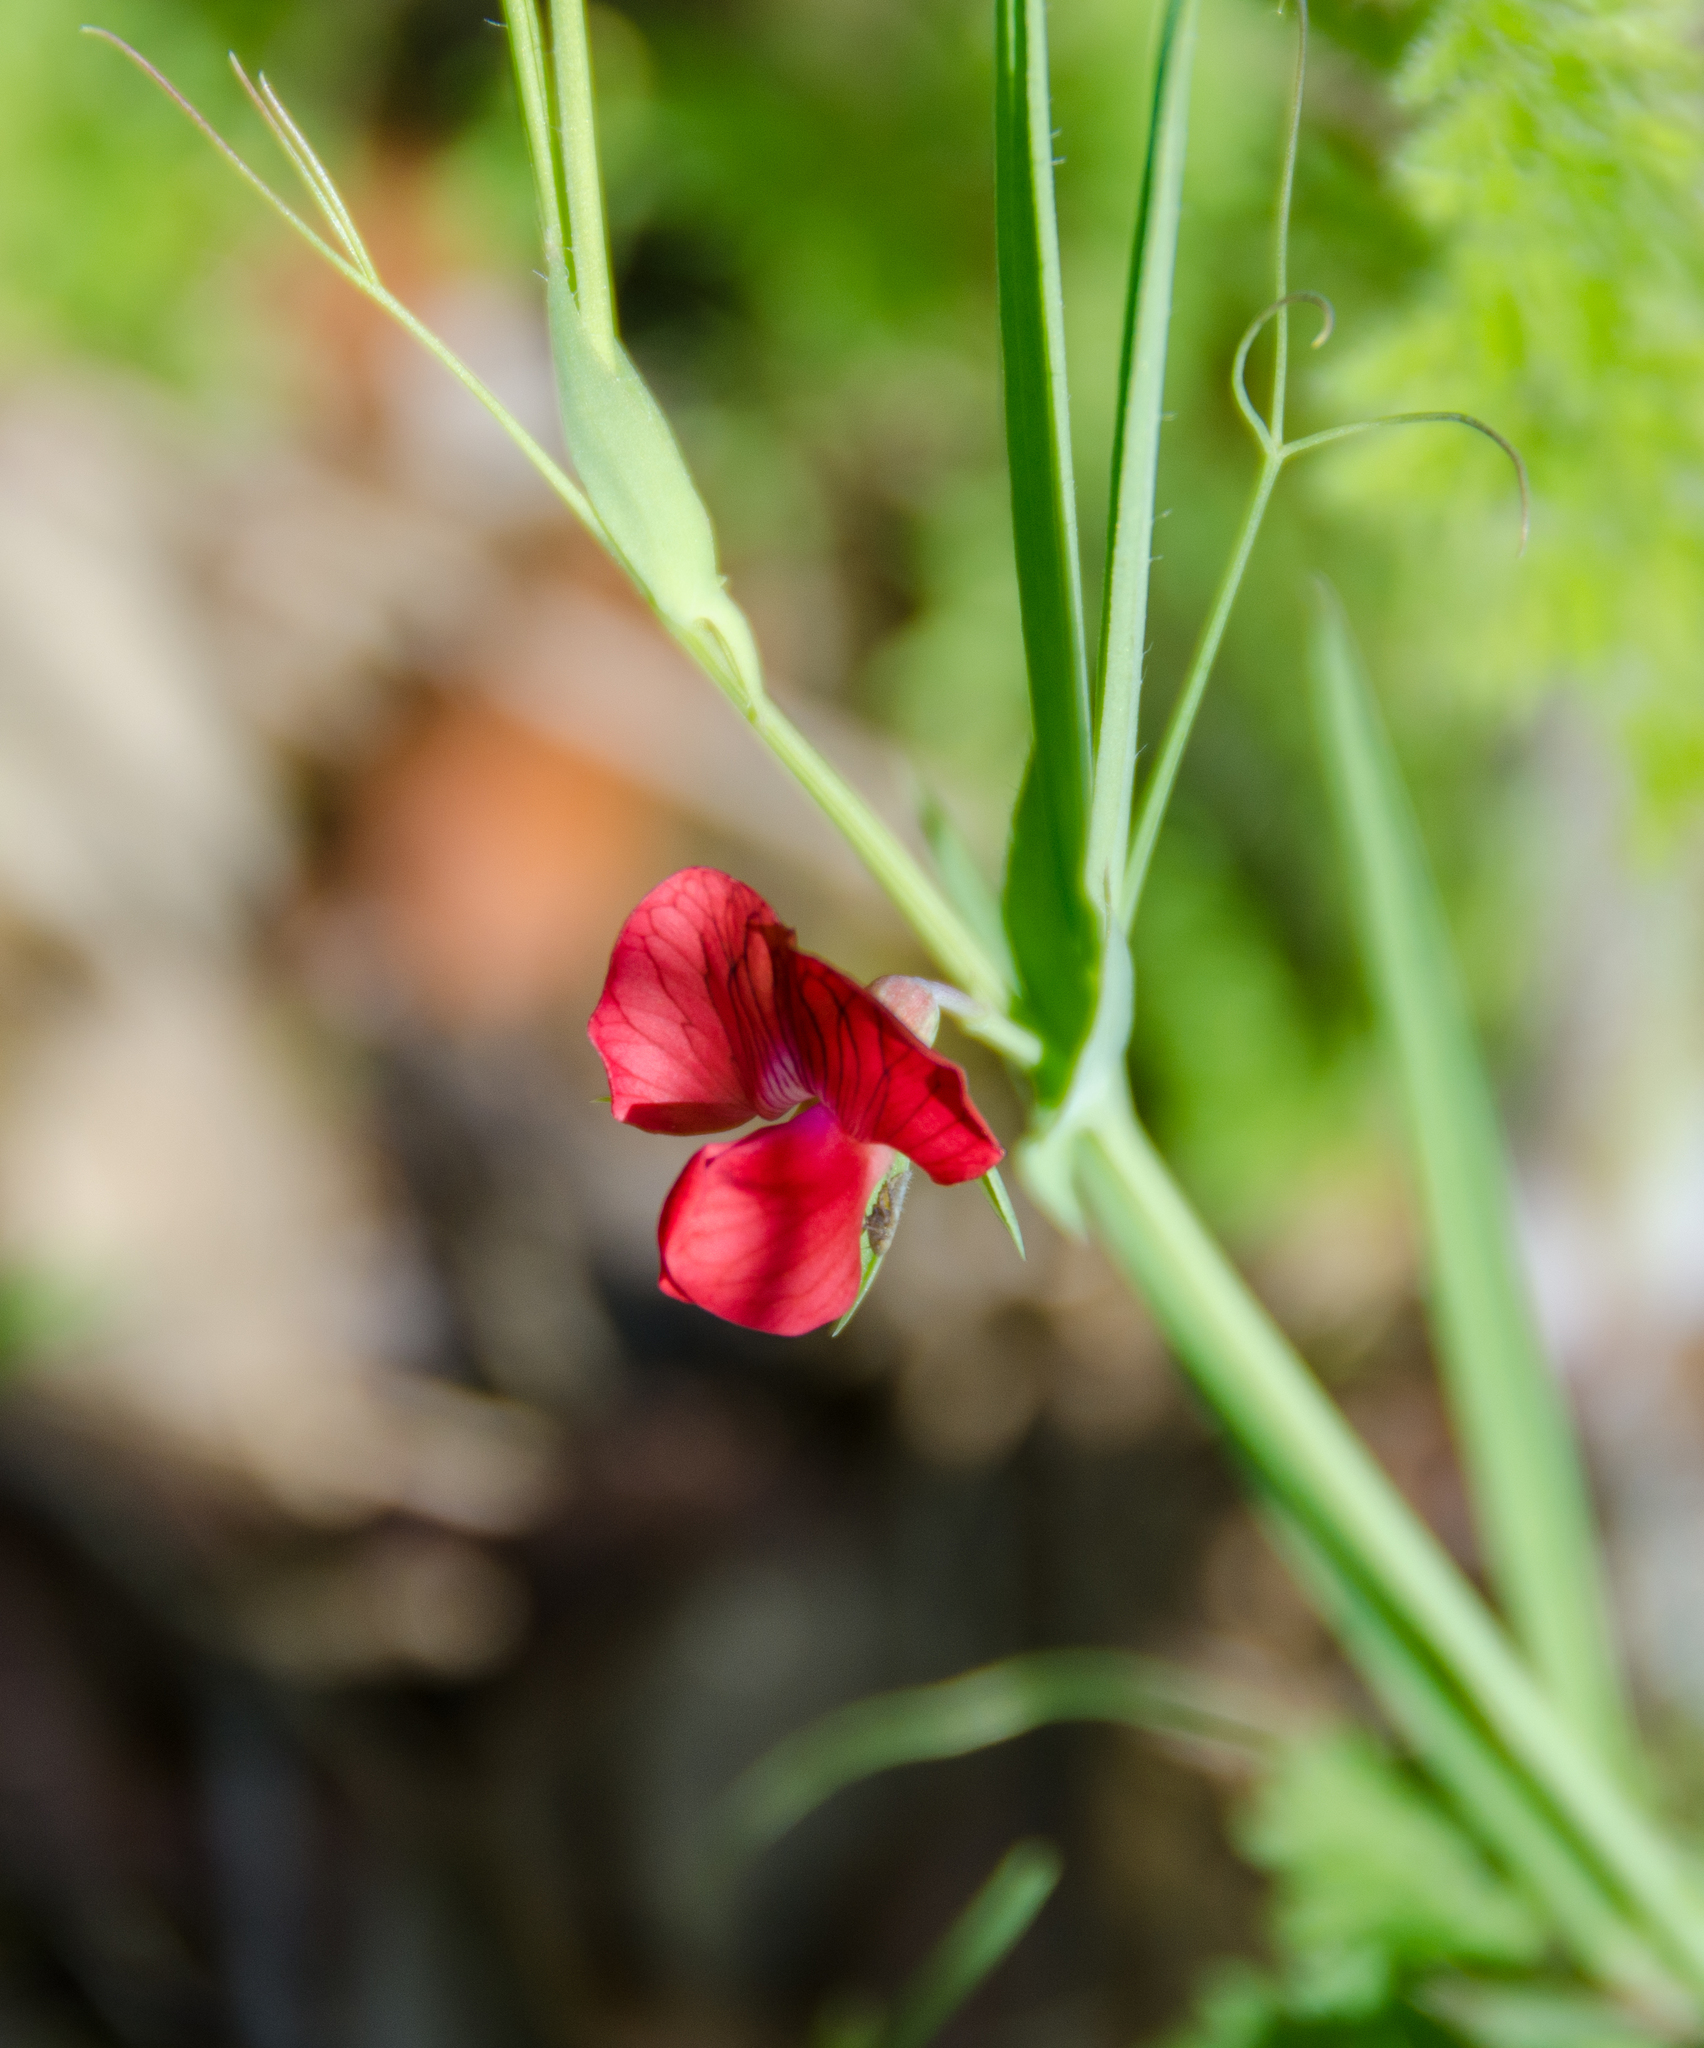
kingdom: Plantae
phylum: Tracheophyta
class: Magnoliopsida
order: Fabales
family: Fabaceae
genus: Lathyrus
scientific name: Lathyrus cicera
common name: Red vetchling
